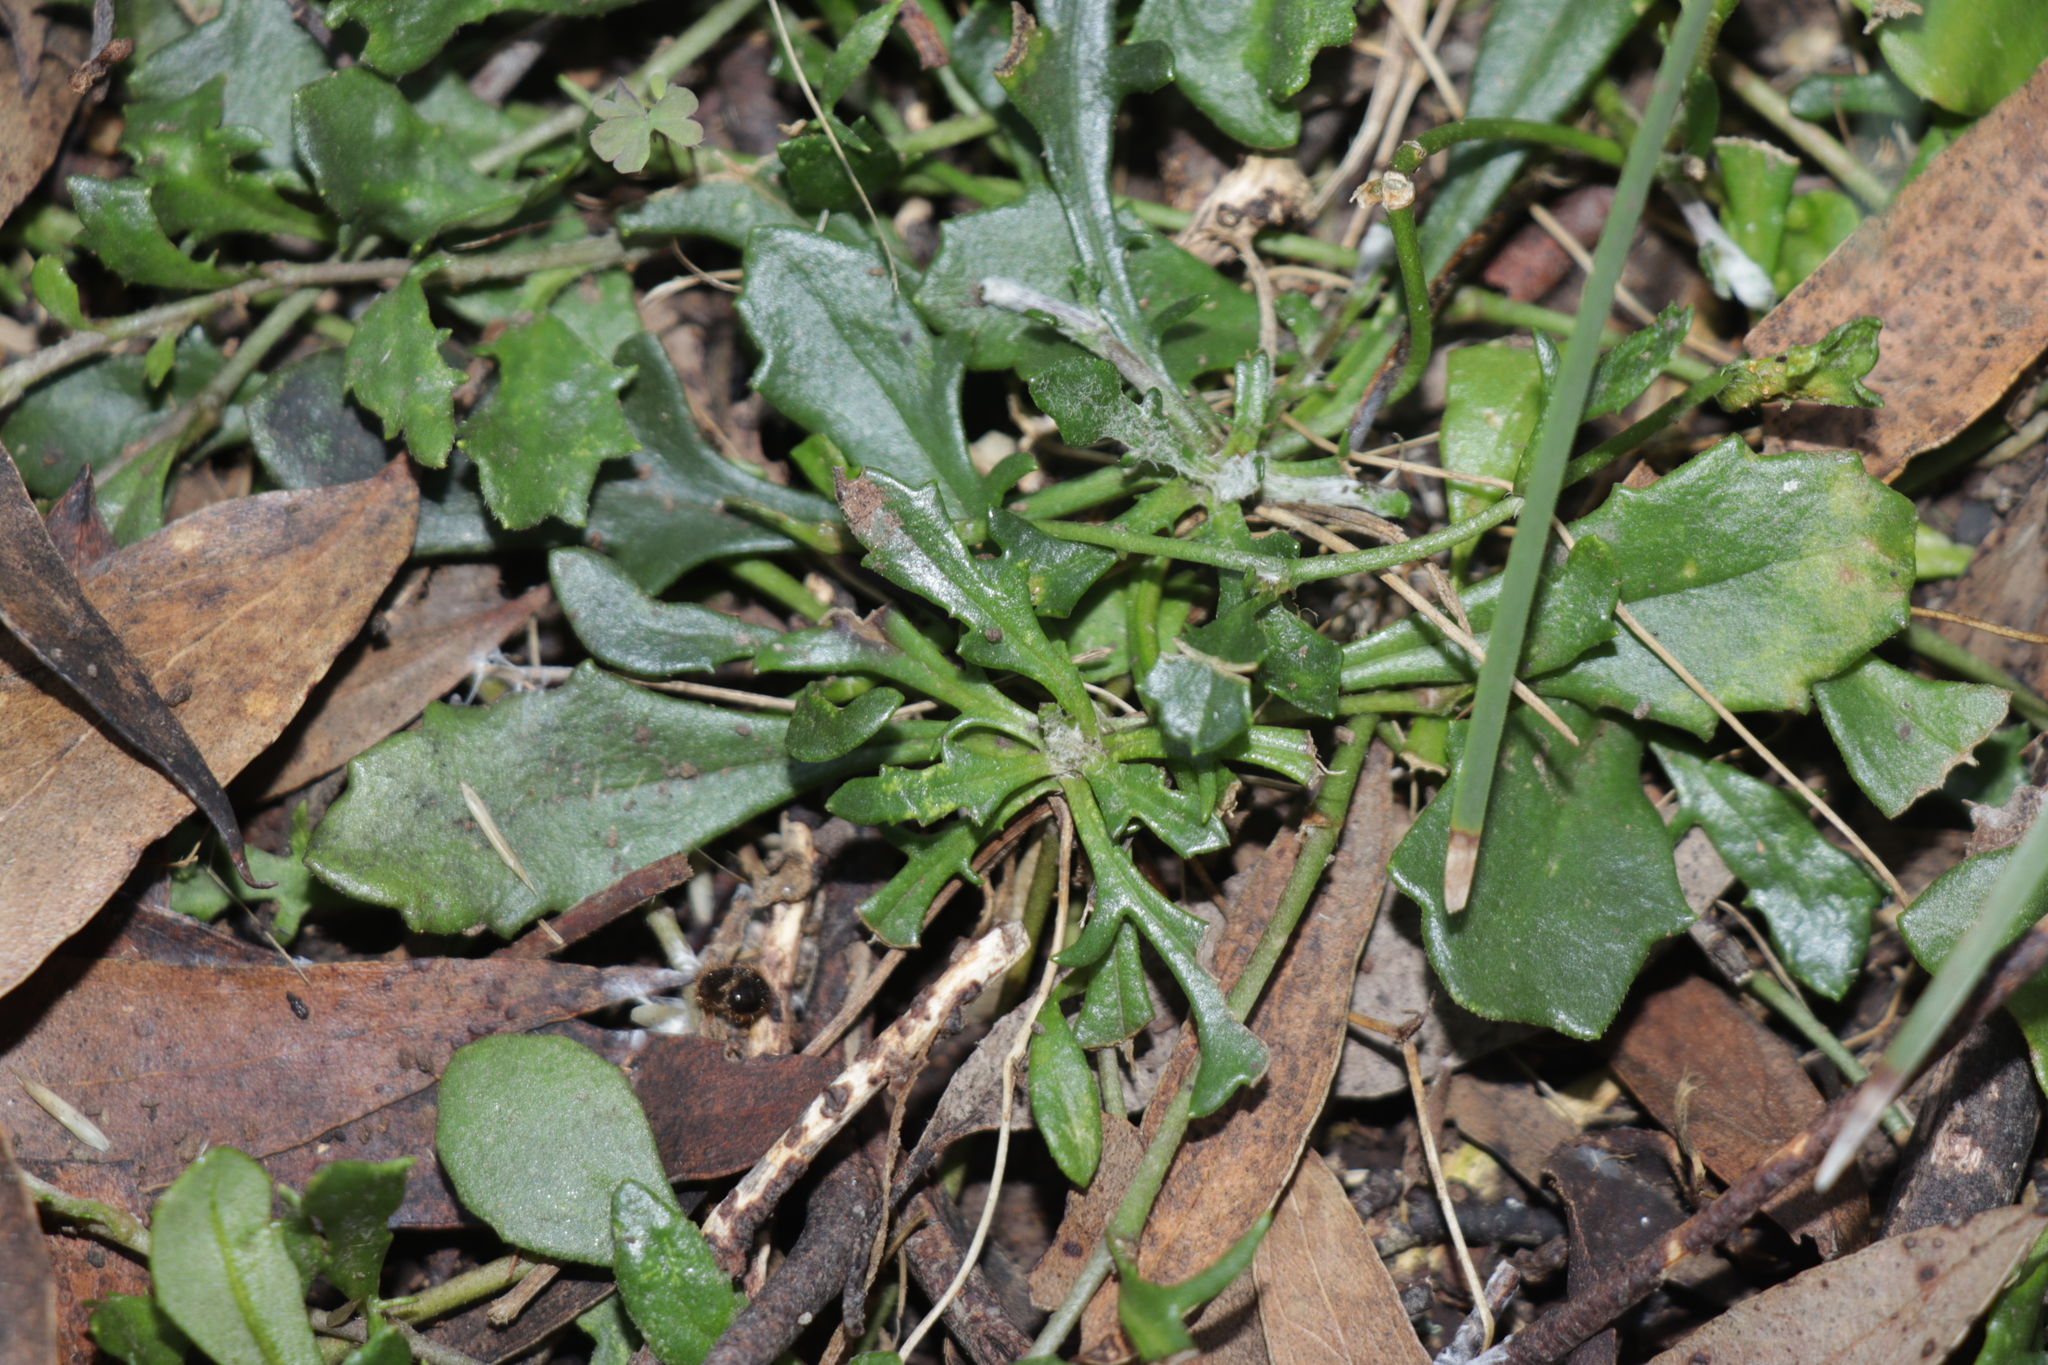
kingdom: Plantae
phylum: Tracheophyta
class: Magnoliopsida
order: Asterales
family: Goodeniaceae
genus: Goodenia
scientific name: Goodenia lanata
